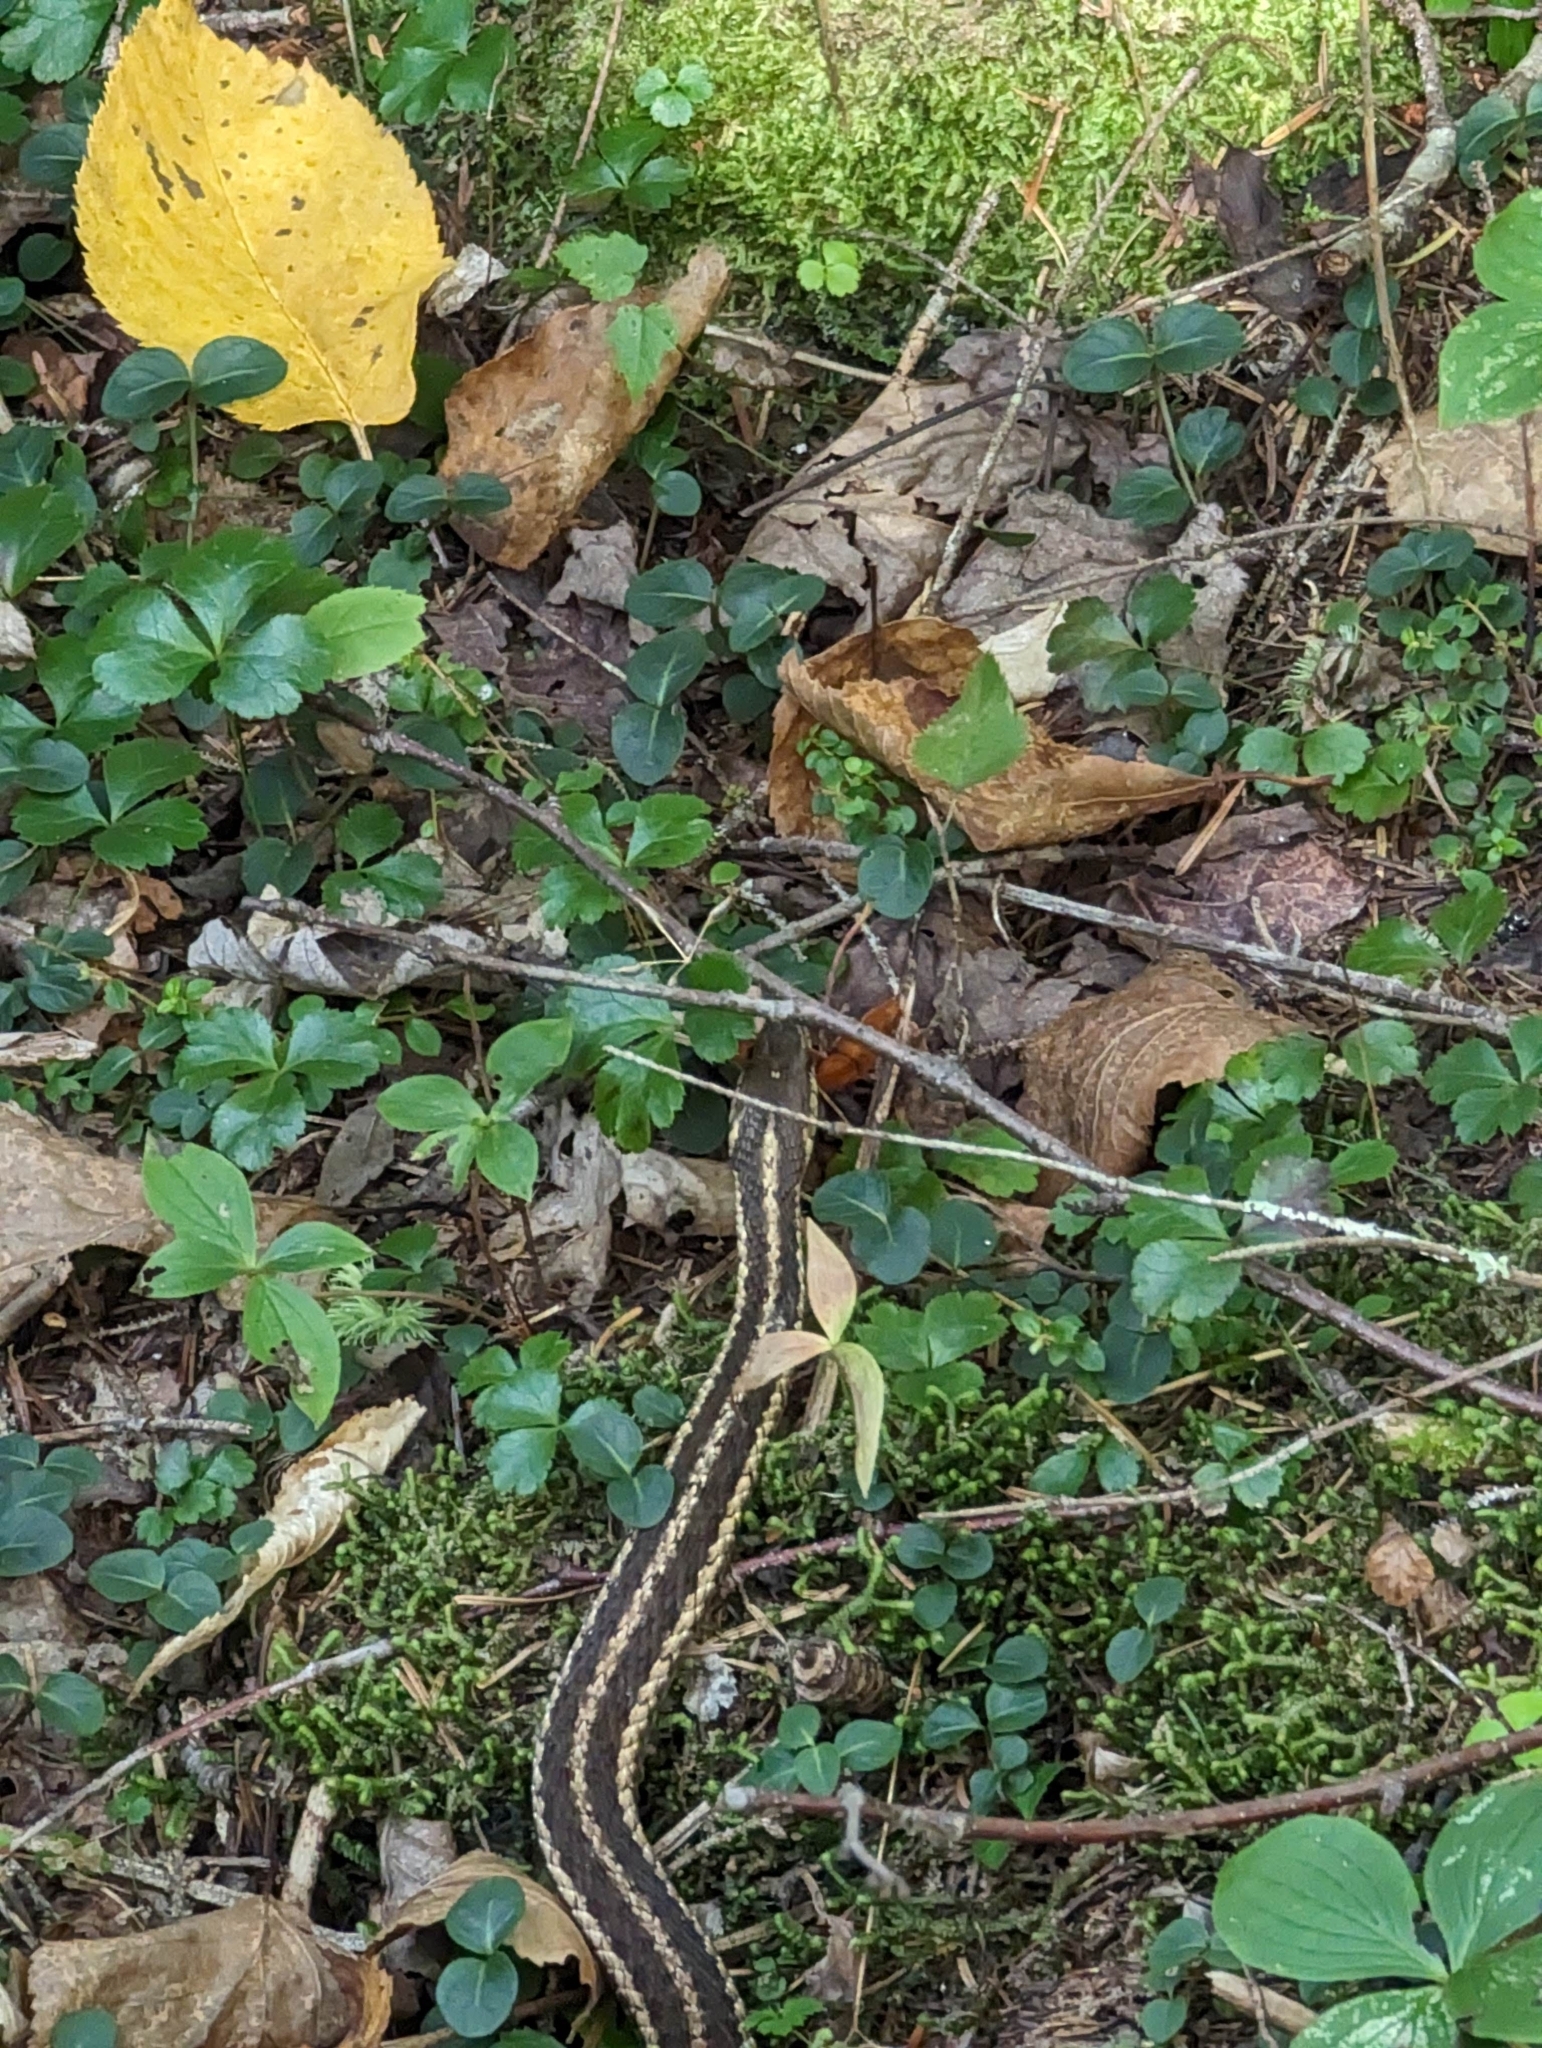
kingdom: Animalia
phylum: Chordata
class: Squamata
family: Colubridae
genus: Thamnophis
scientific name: Thamnophis sirtalis
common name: Common garter snake
